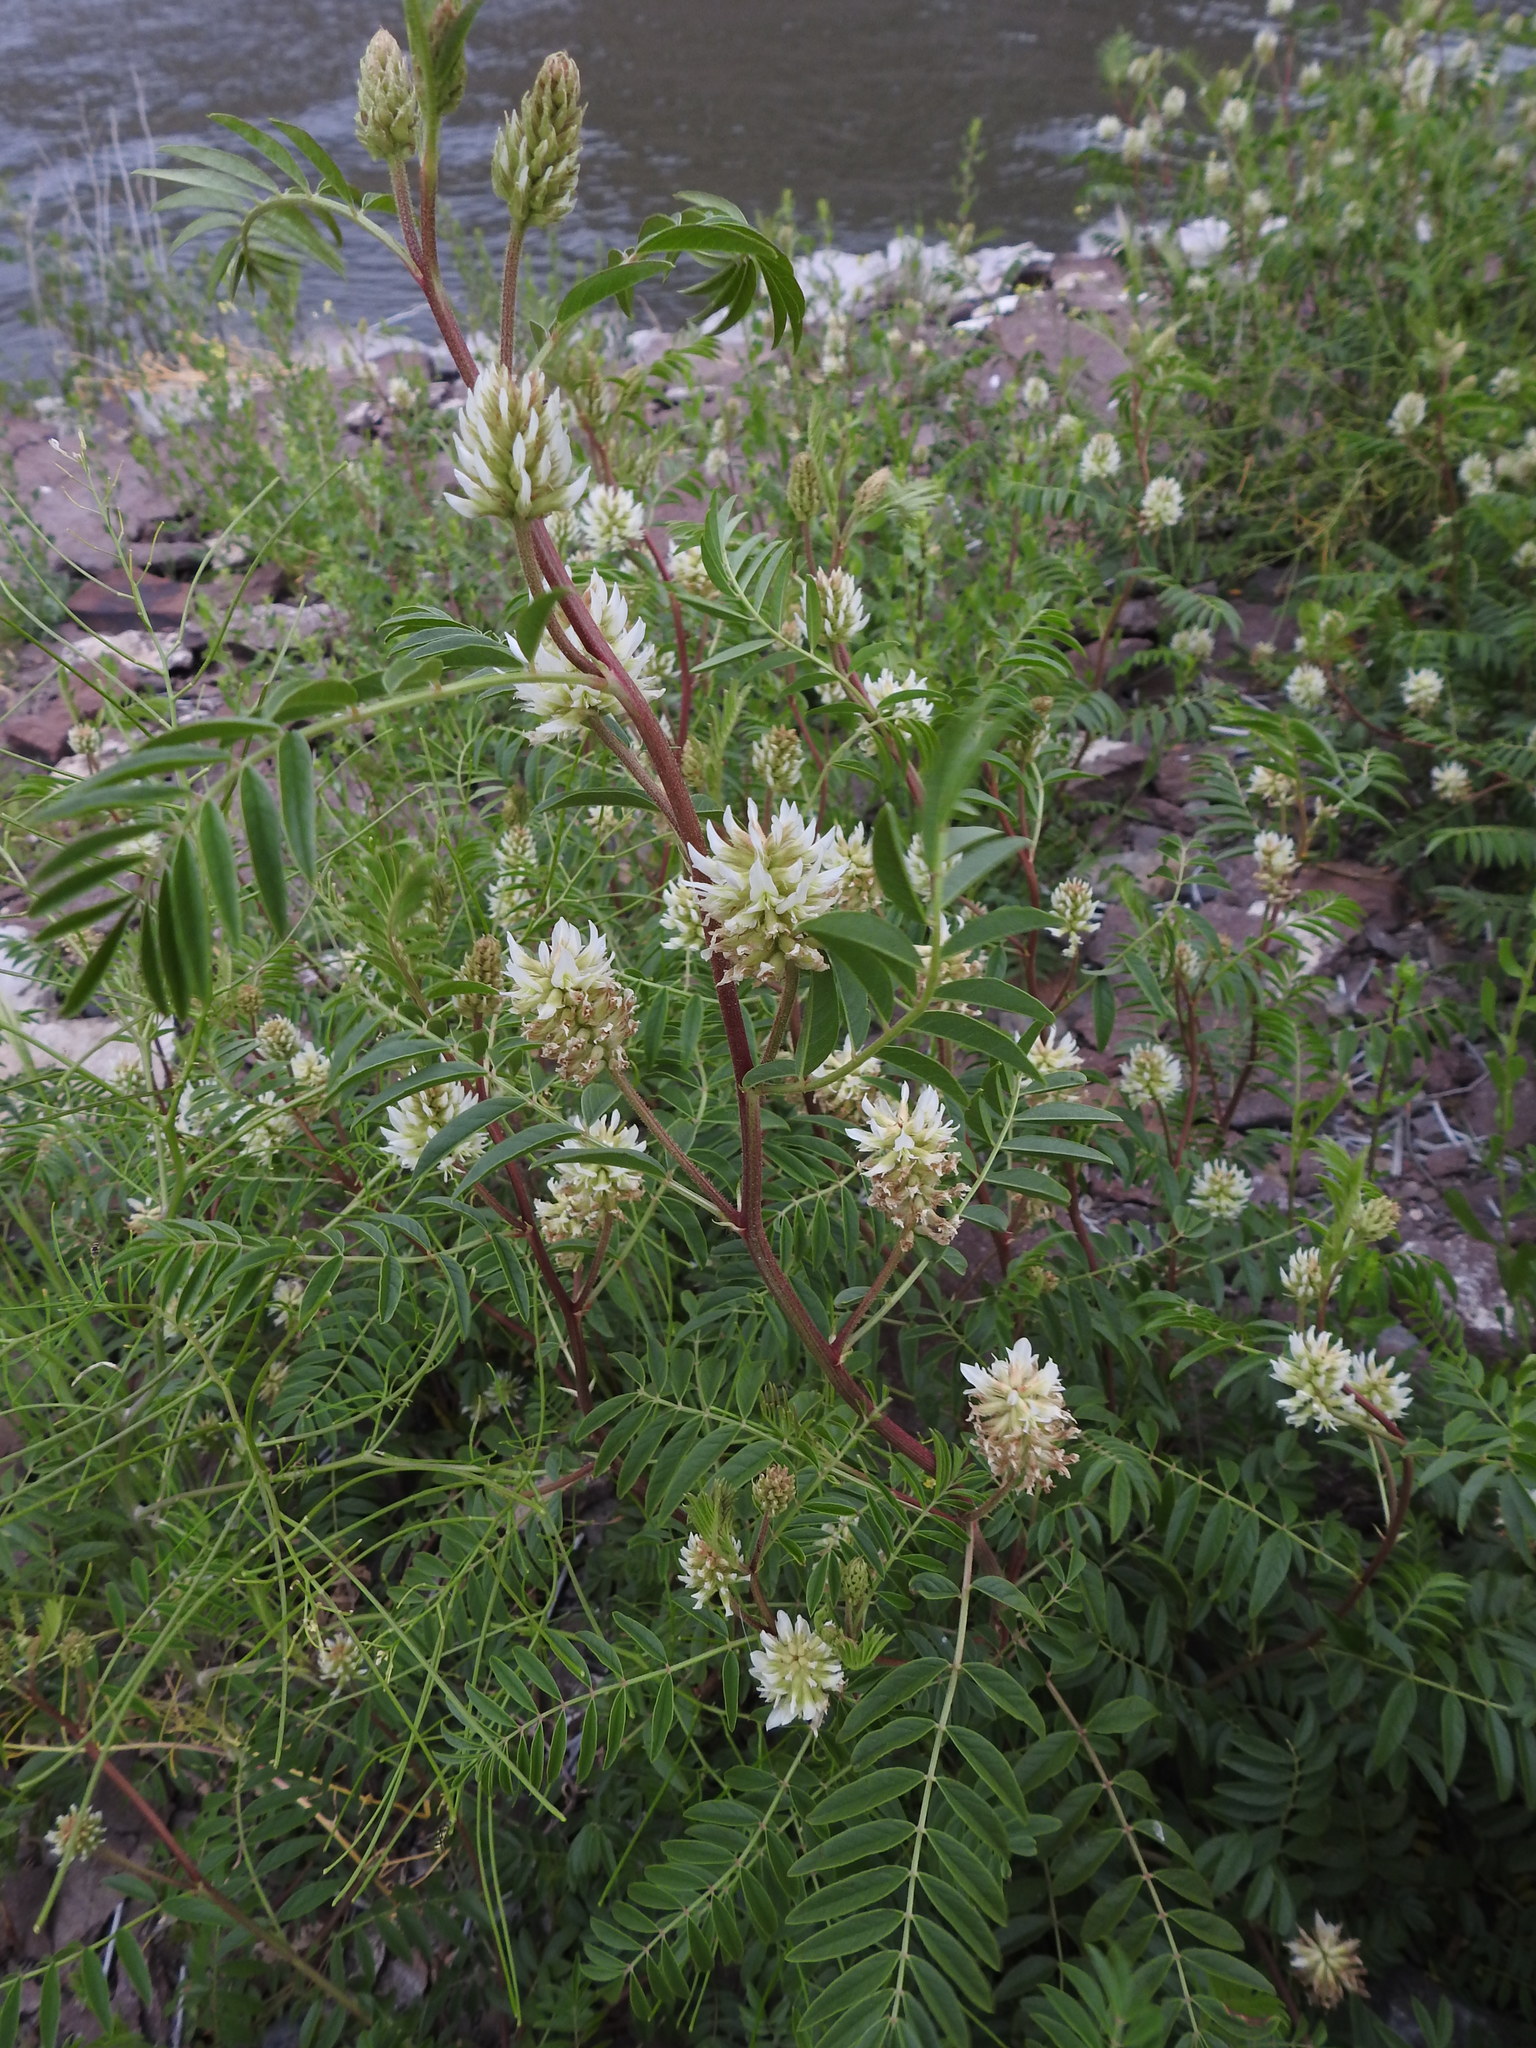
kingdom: Plantae
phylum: Tracheophyta
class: Magnoliopsida
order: Fabales
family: Fabaceae
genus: Glycyrrhiza
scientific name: Glycyrrhiza lepidota
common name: American liquorice
